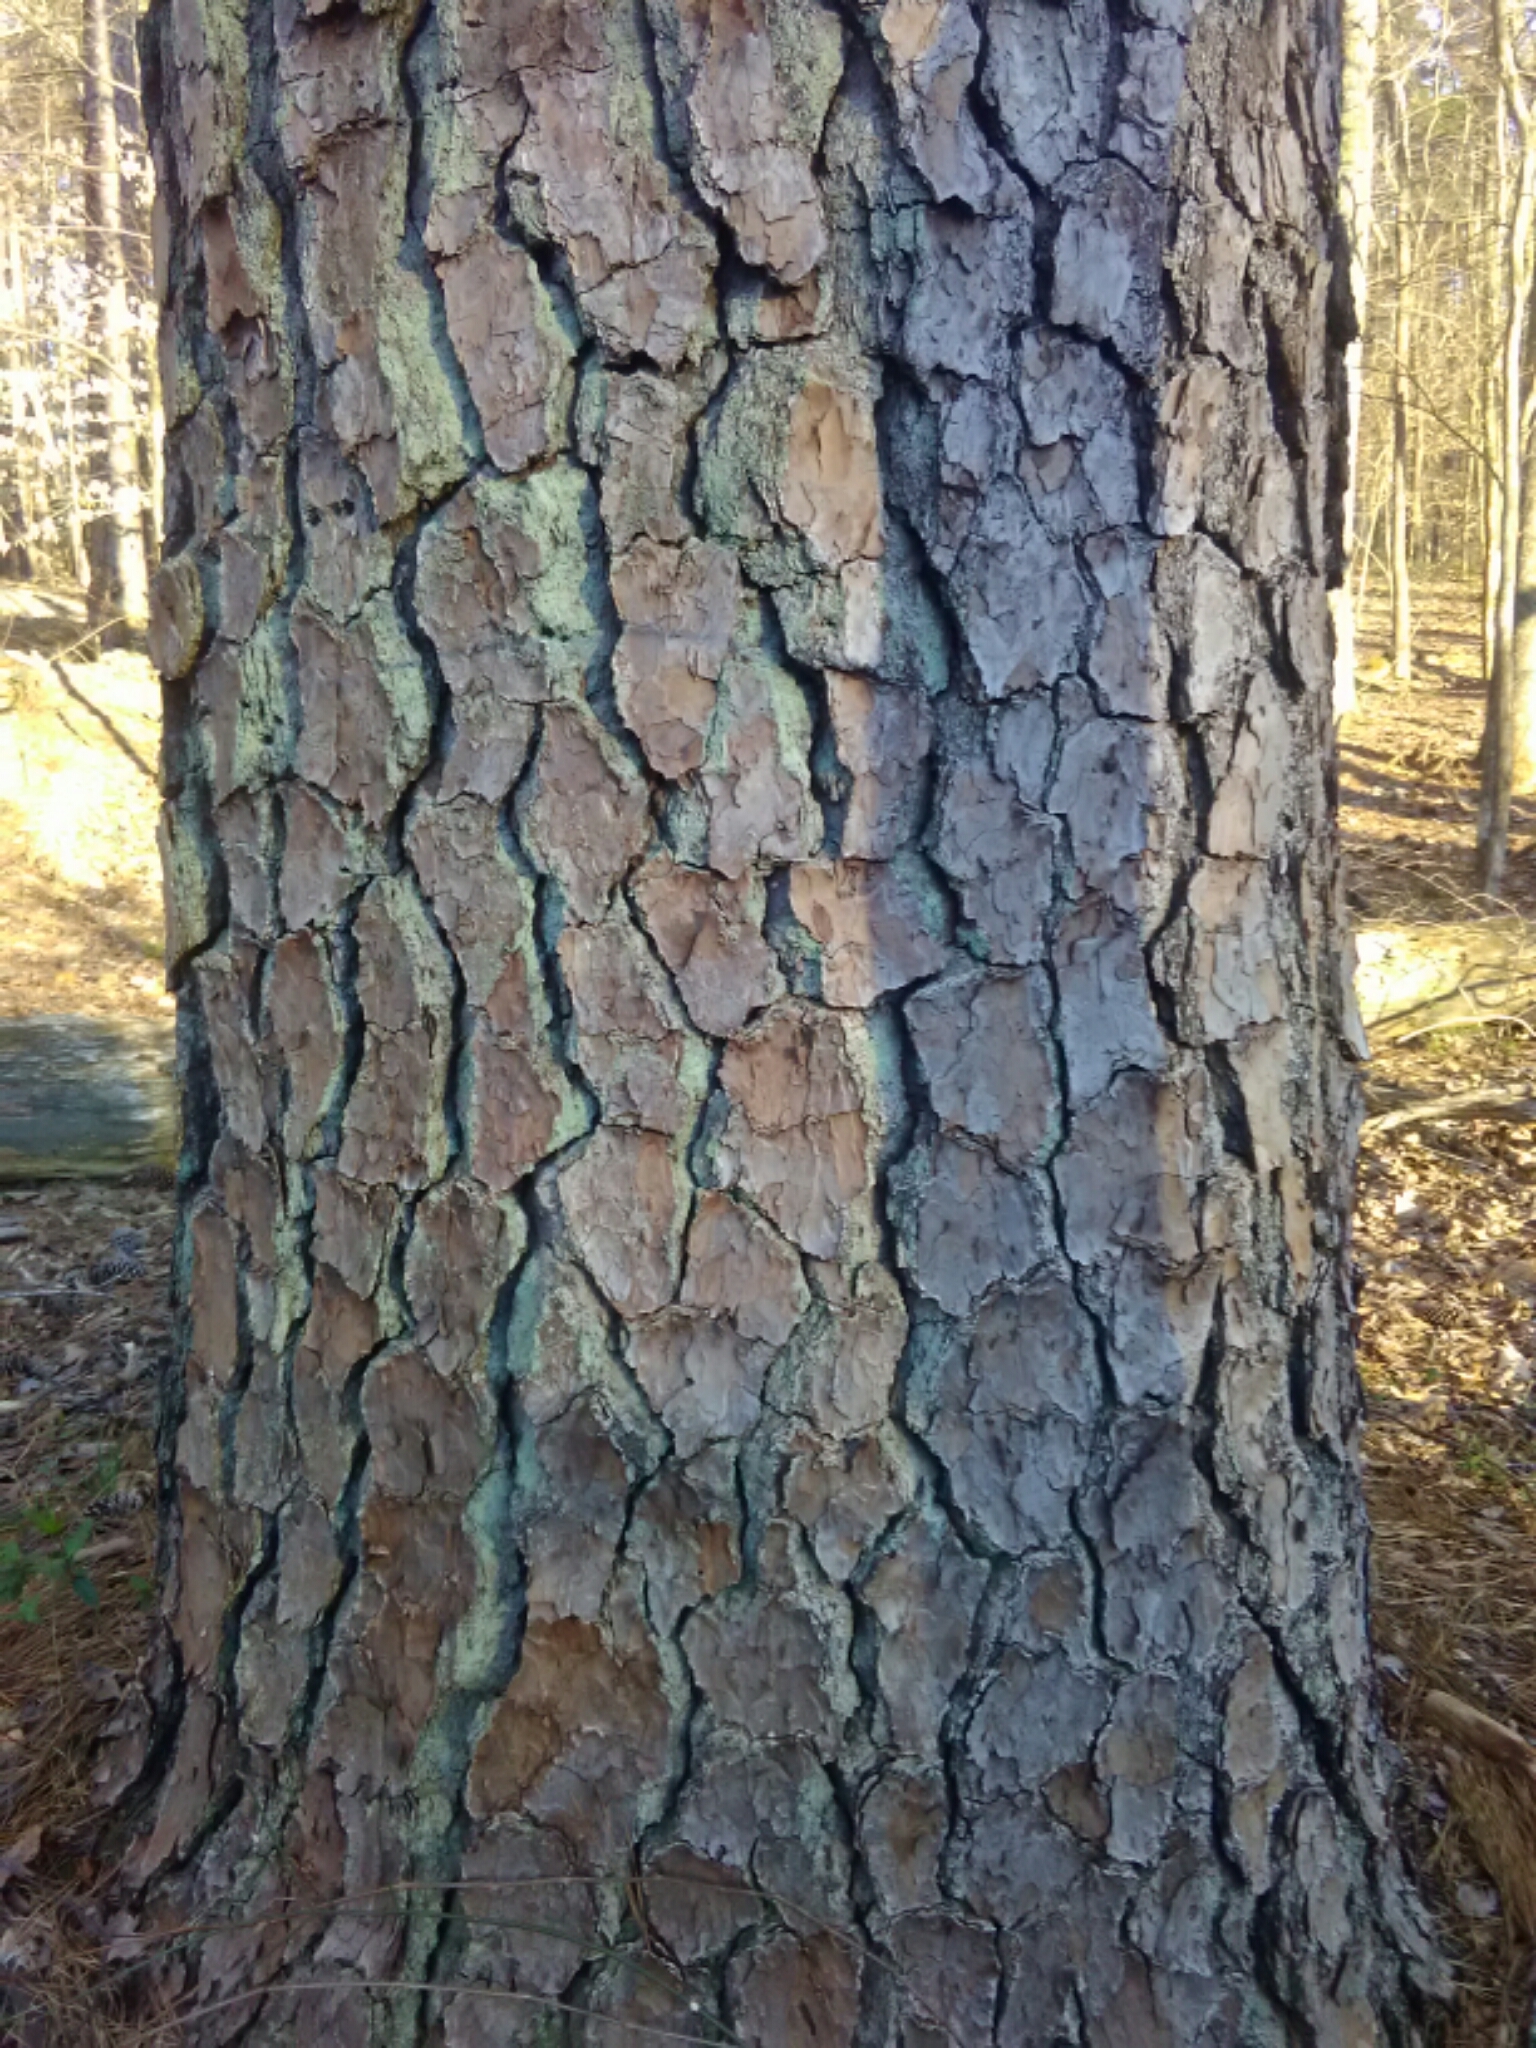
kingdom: Plantae
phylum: Tracheophyta
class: Pinopsida
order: Pinales
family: Pinaceae
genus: Pinus
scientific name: Pinus taeda
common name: Loblolly pine
